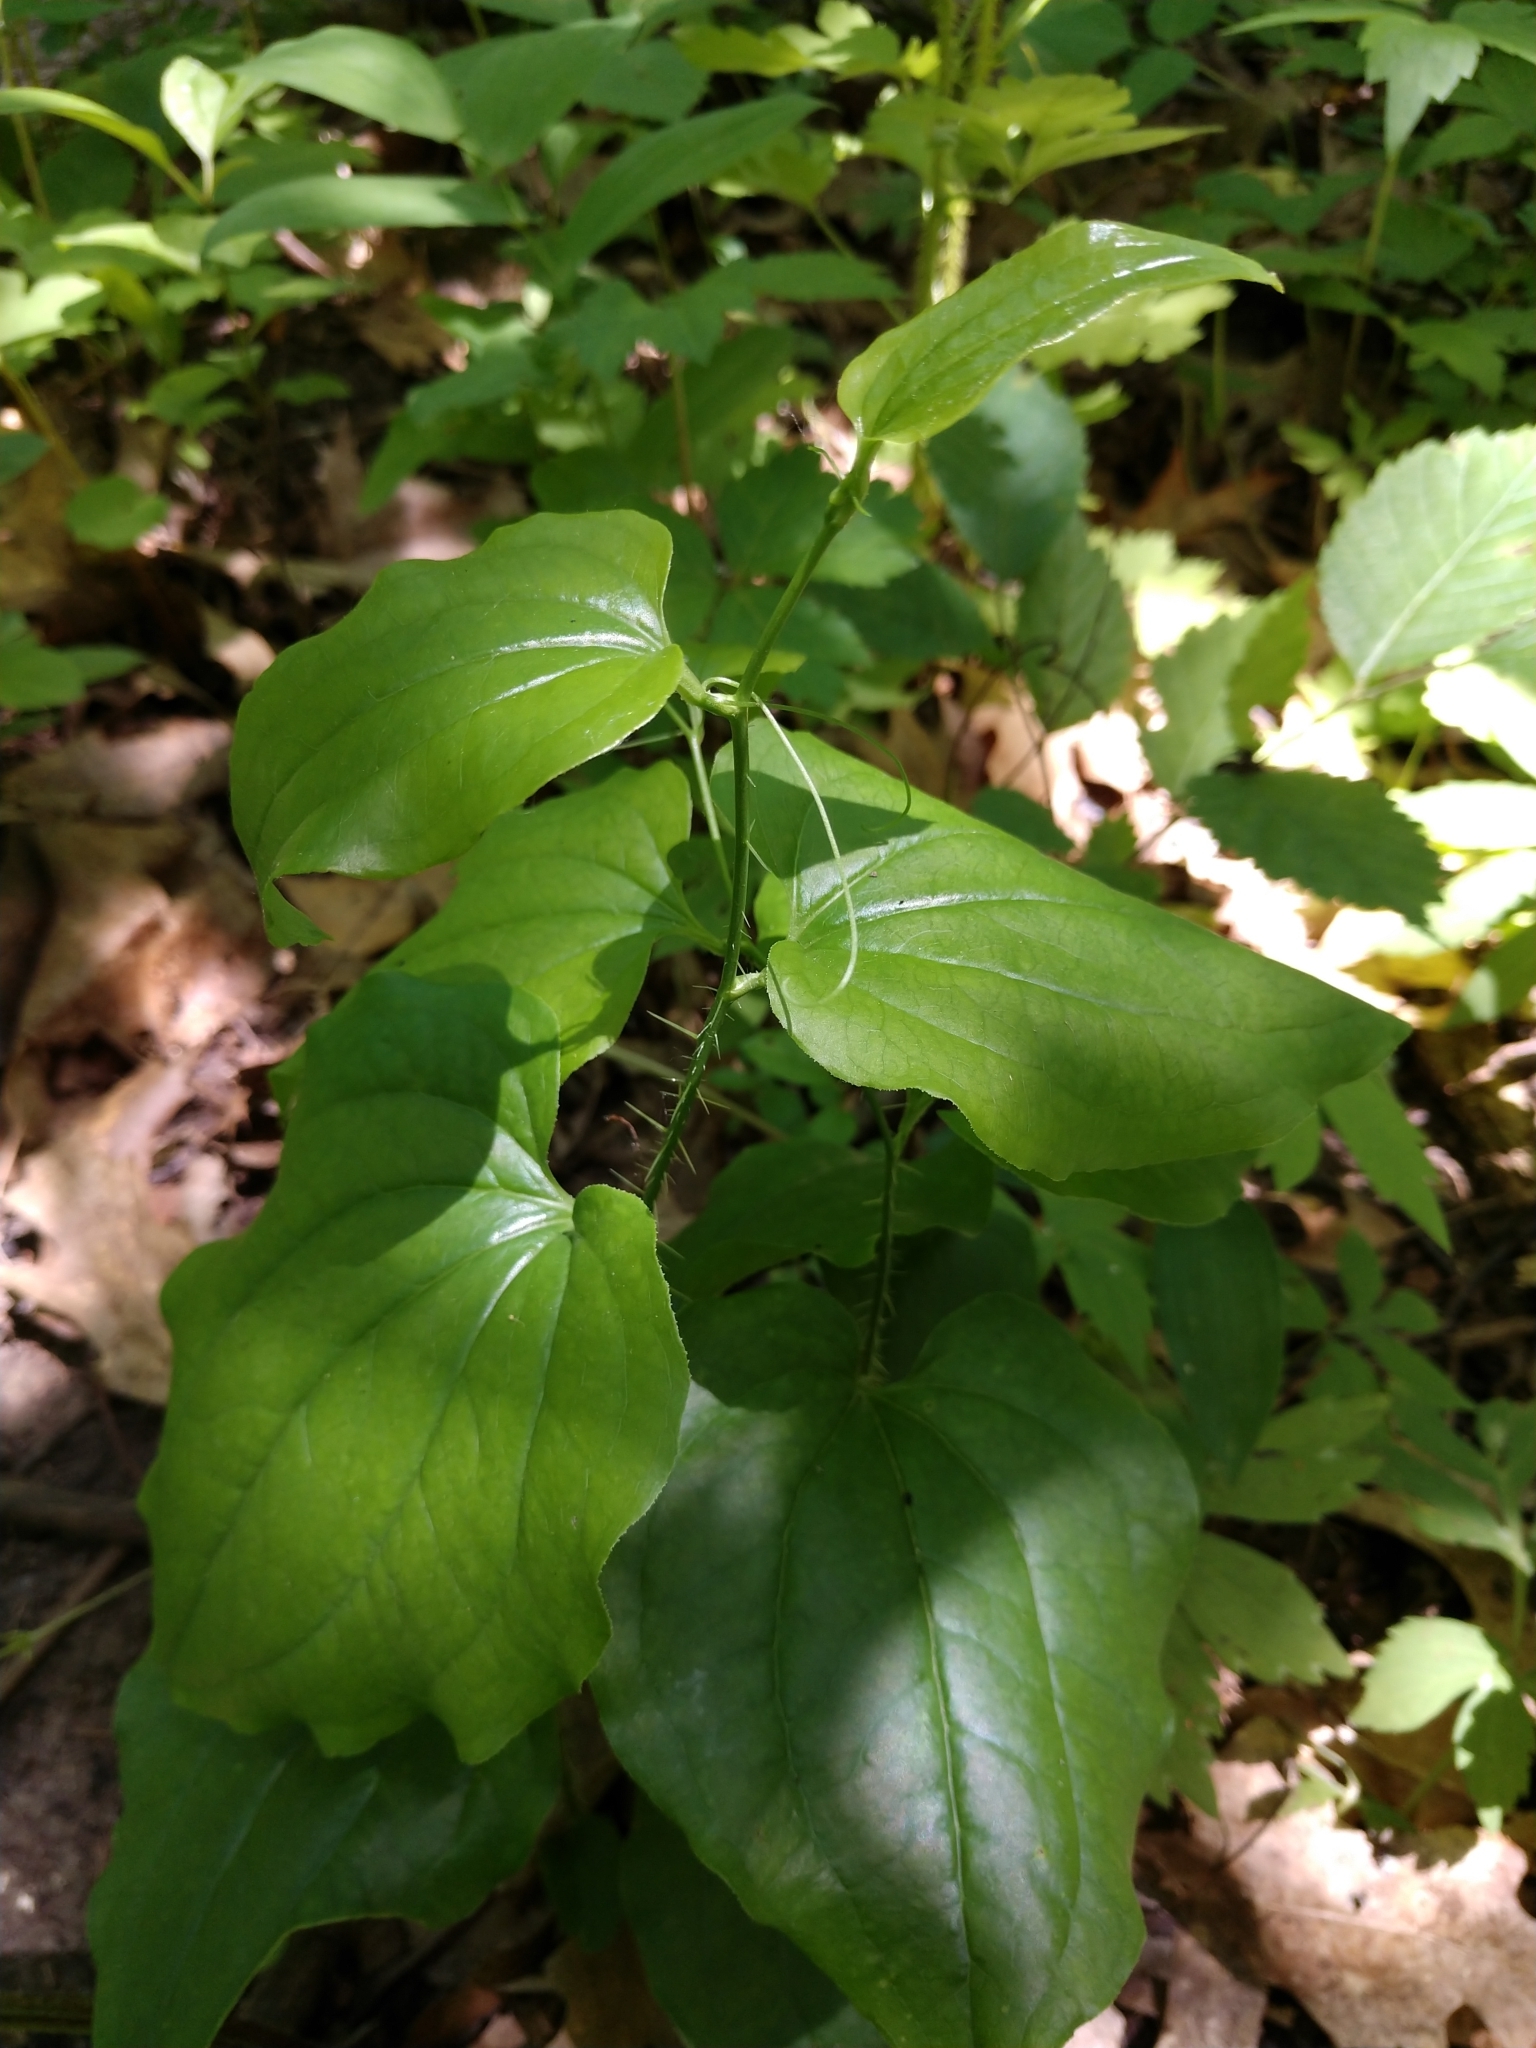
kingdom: Plantae
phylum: Tracheophyta
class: Liliopsida
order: Liliales
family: Smilacaceae
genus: Smilax
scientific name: Smilax tamnoides
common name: Hellfetter
